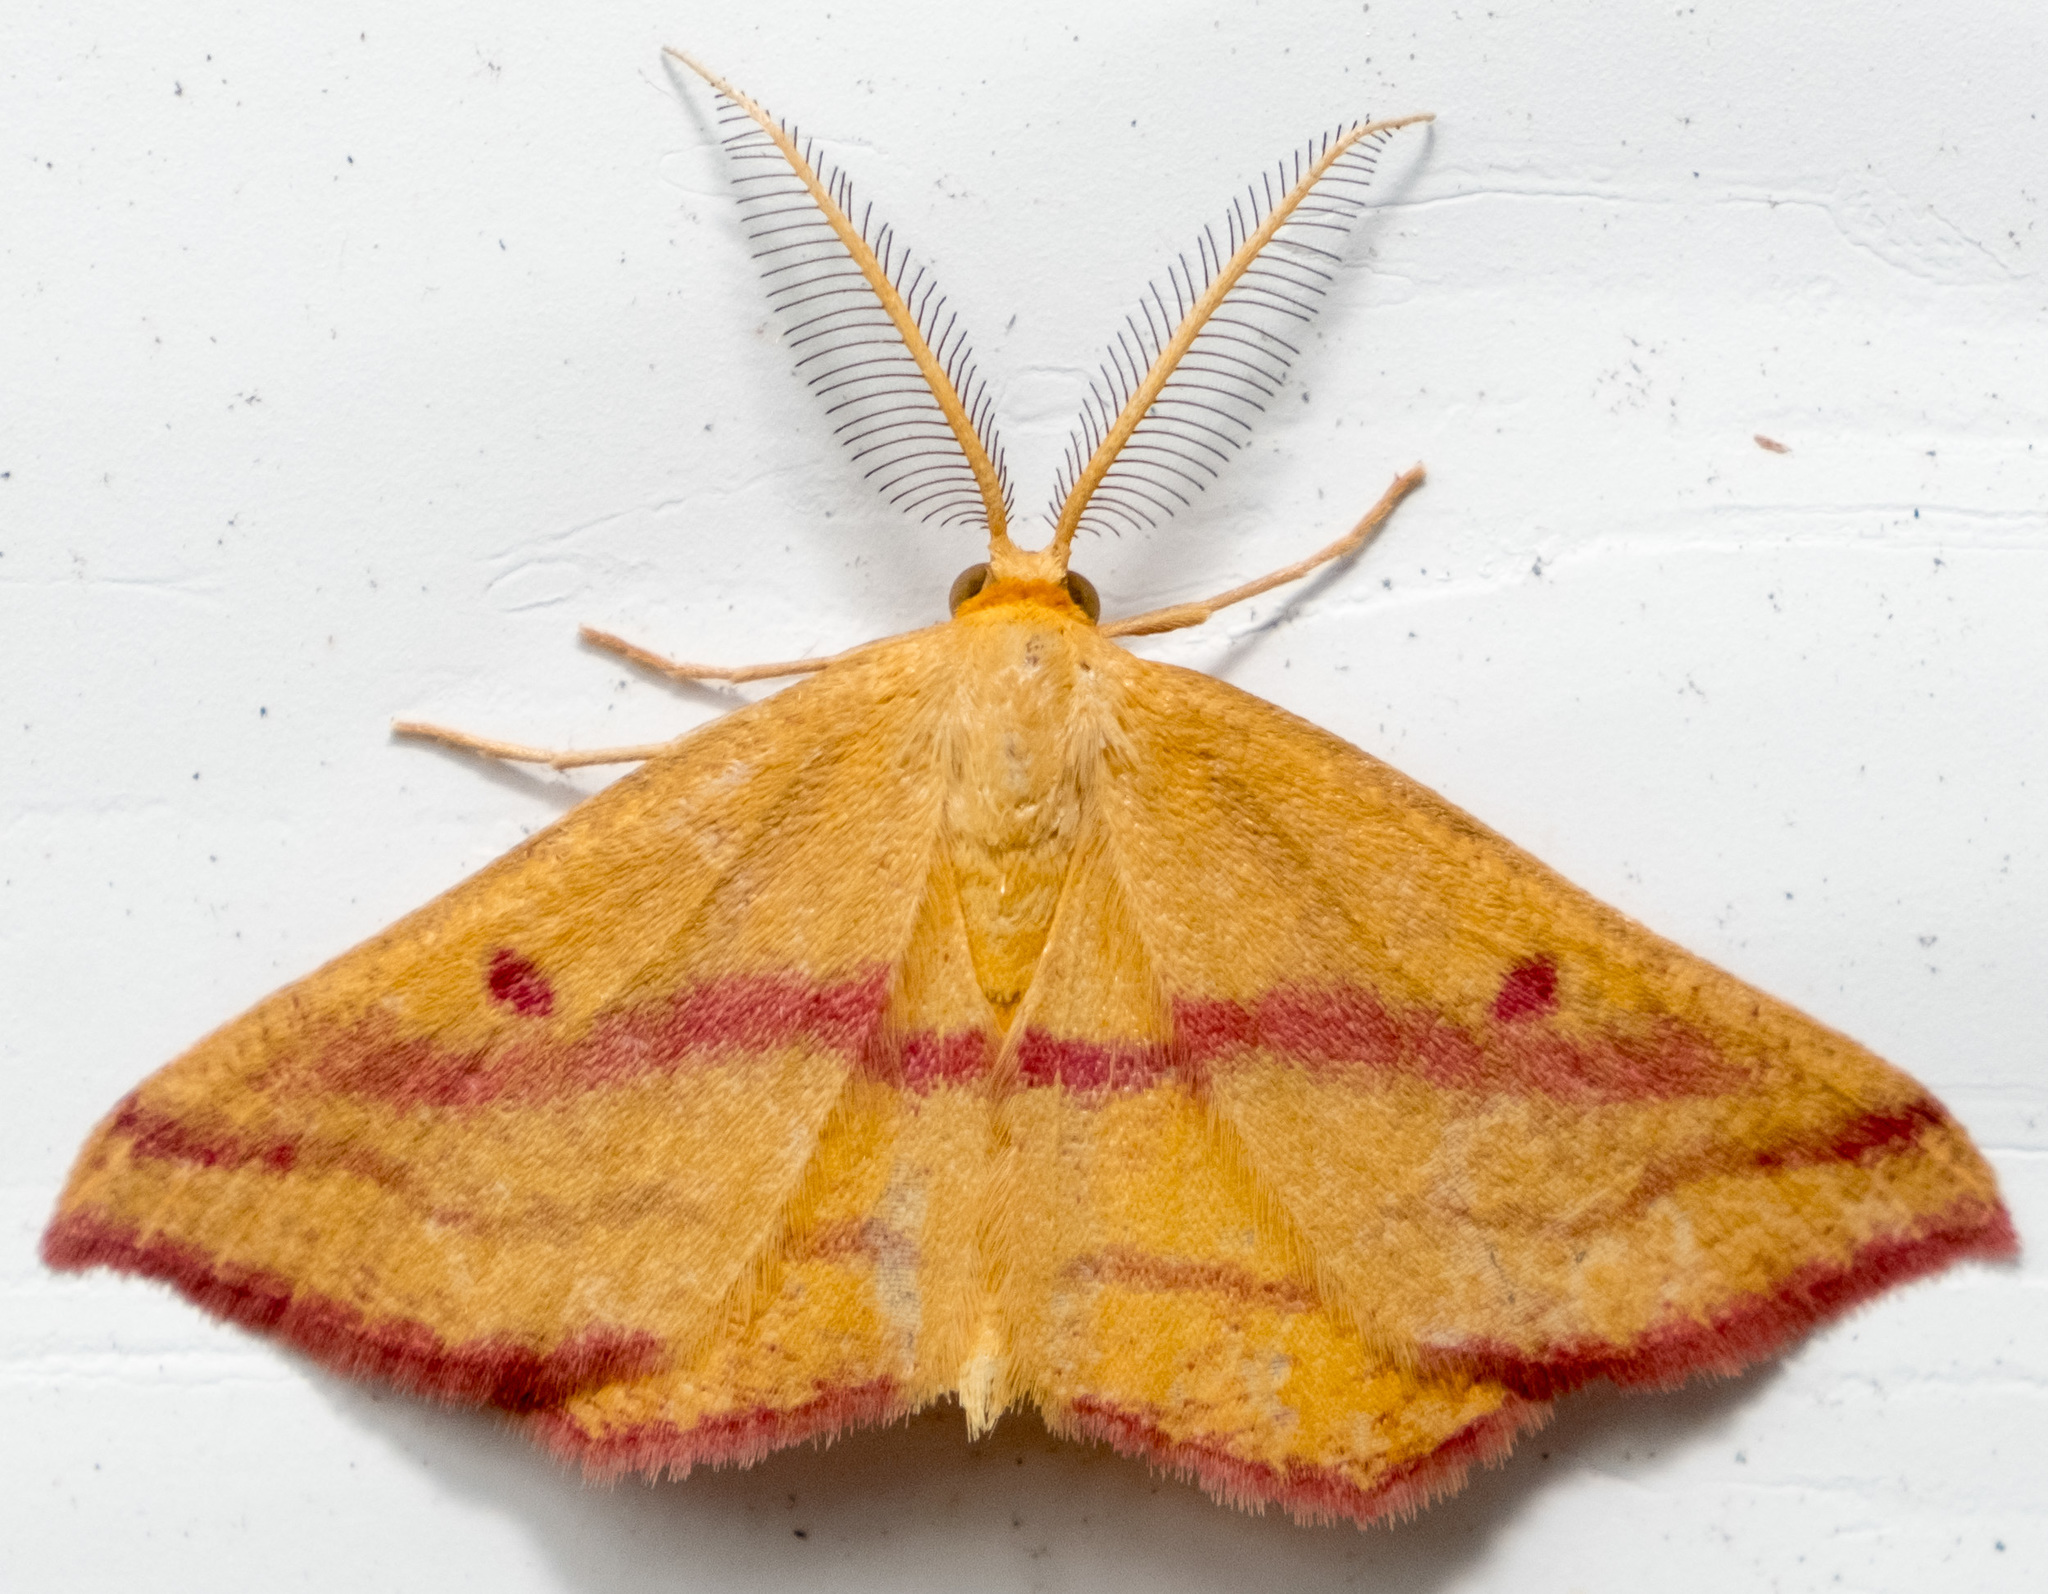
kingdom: Animalia
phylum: Arthropoda
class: Insecta
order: Lepidoptera
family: Geometridae
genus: Haematopis
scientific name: Haematopis grataria
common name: Chickweed geometer
